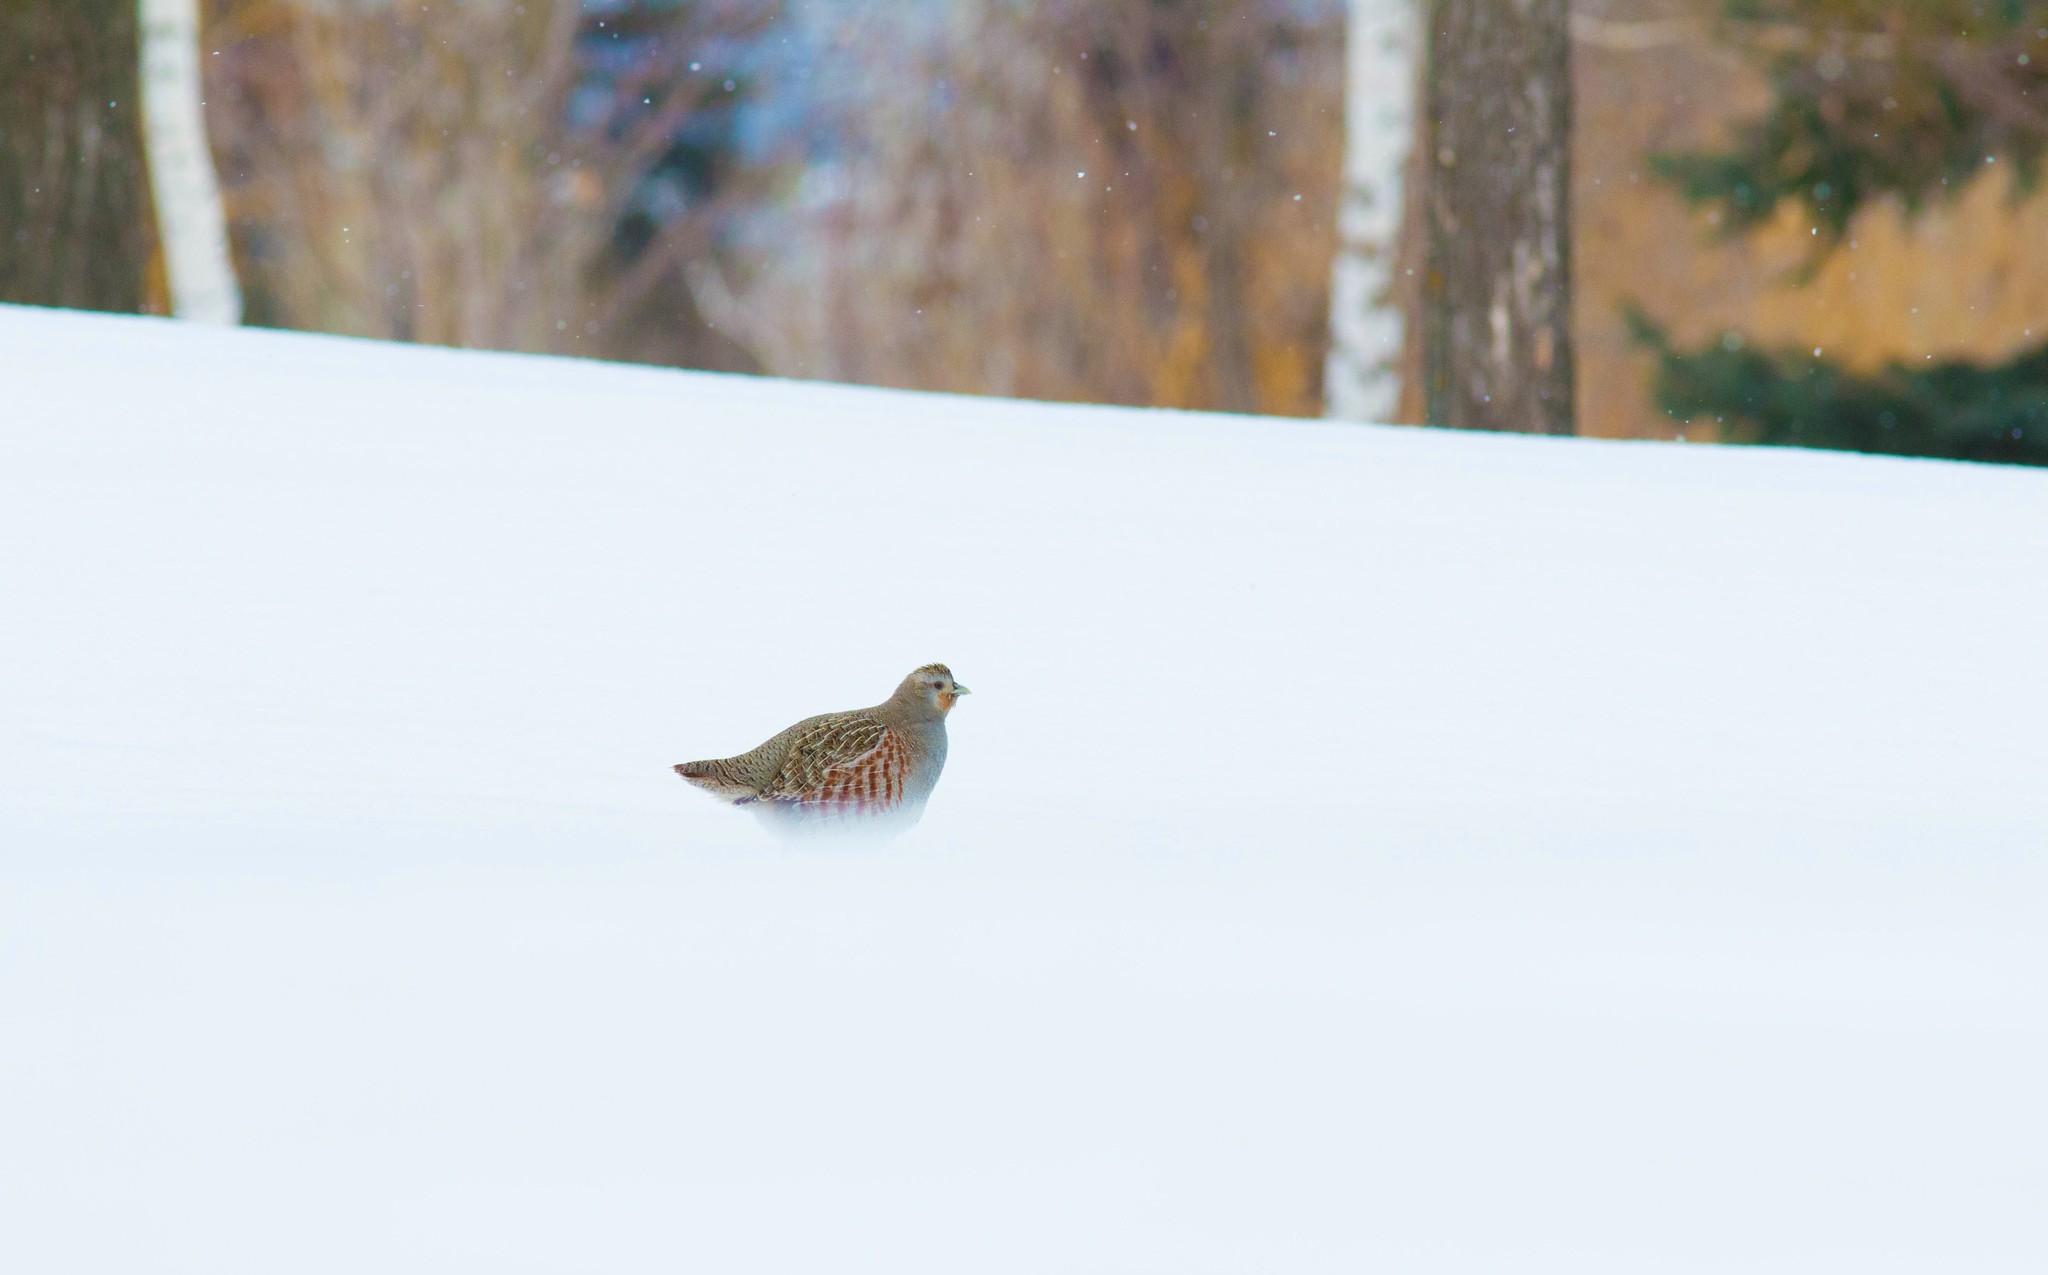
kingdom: Animalia
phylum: Chordata
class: Aves
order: Galliformes
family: Phasianidae
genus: Perdix
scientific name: Perdix perdix
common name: Grey partridge
